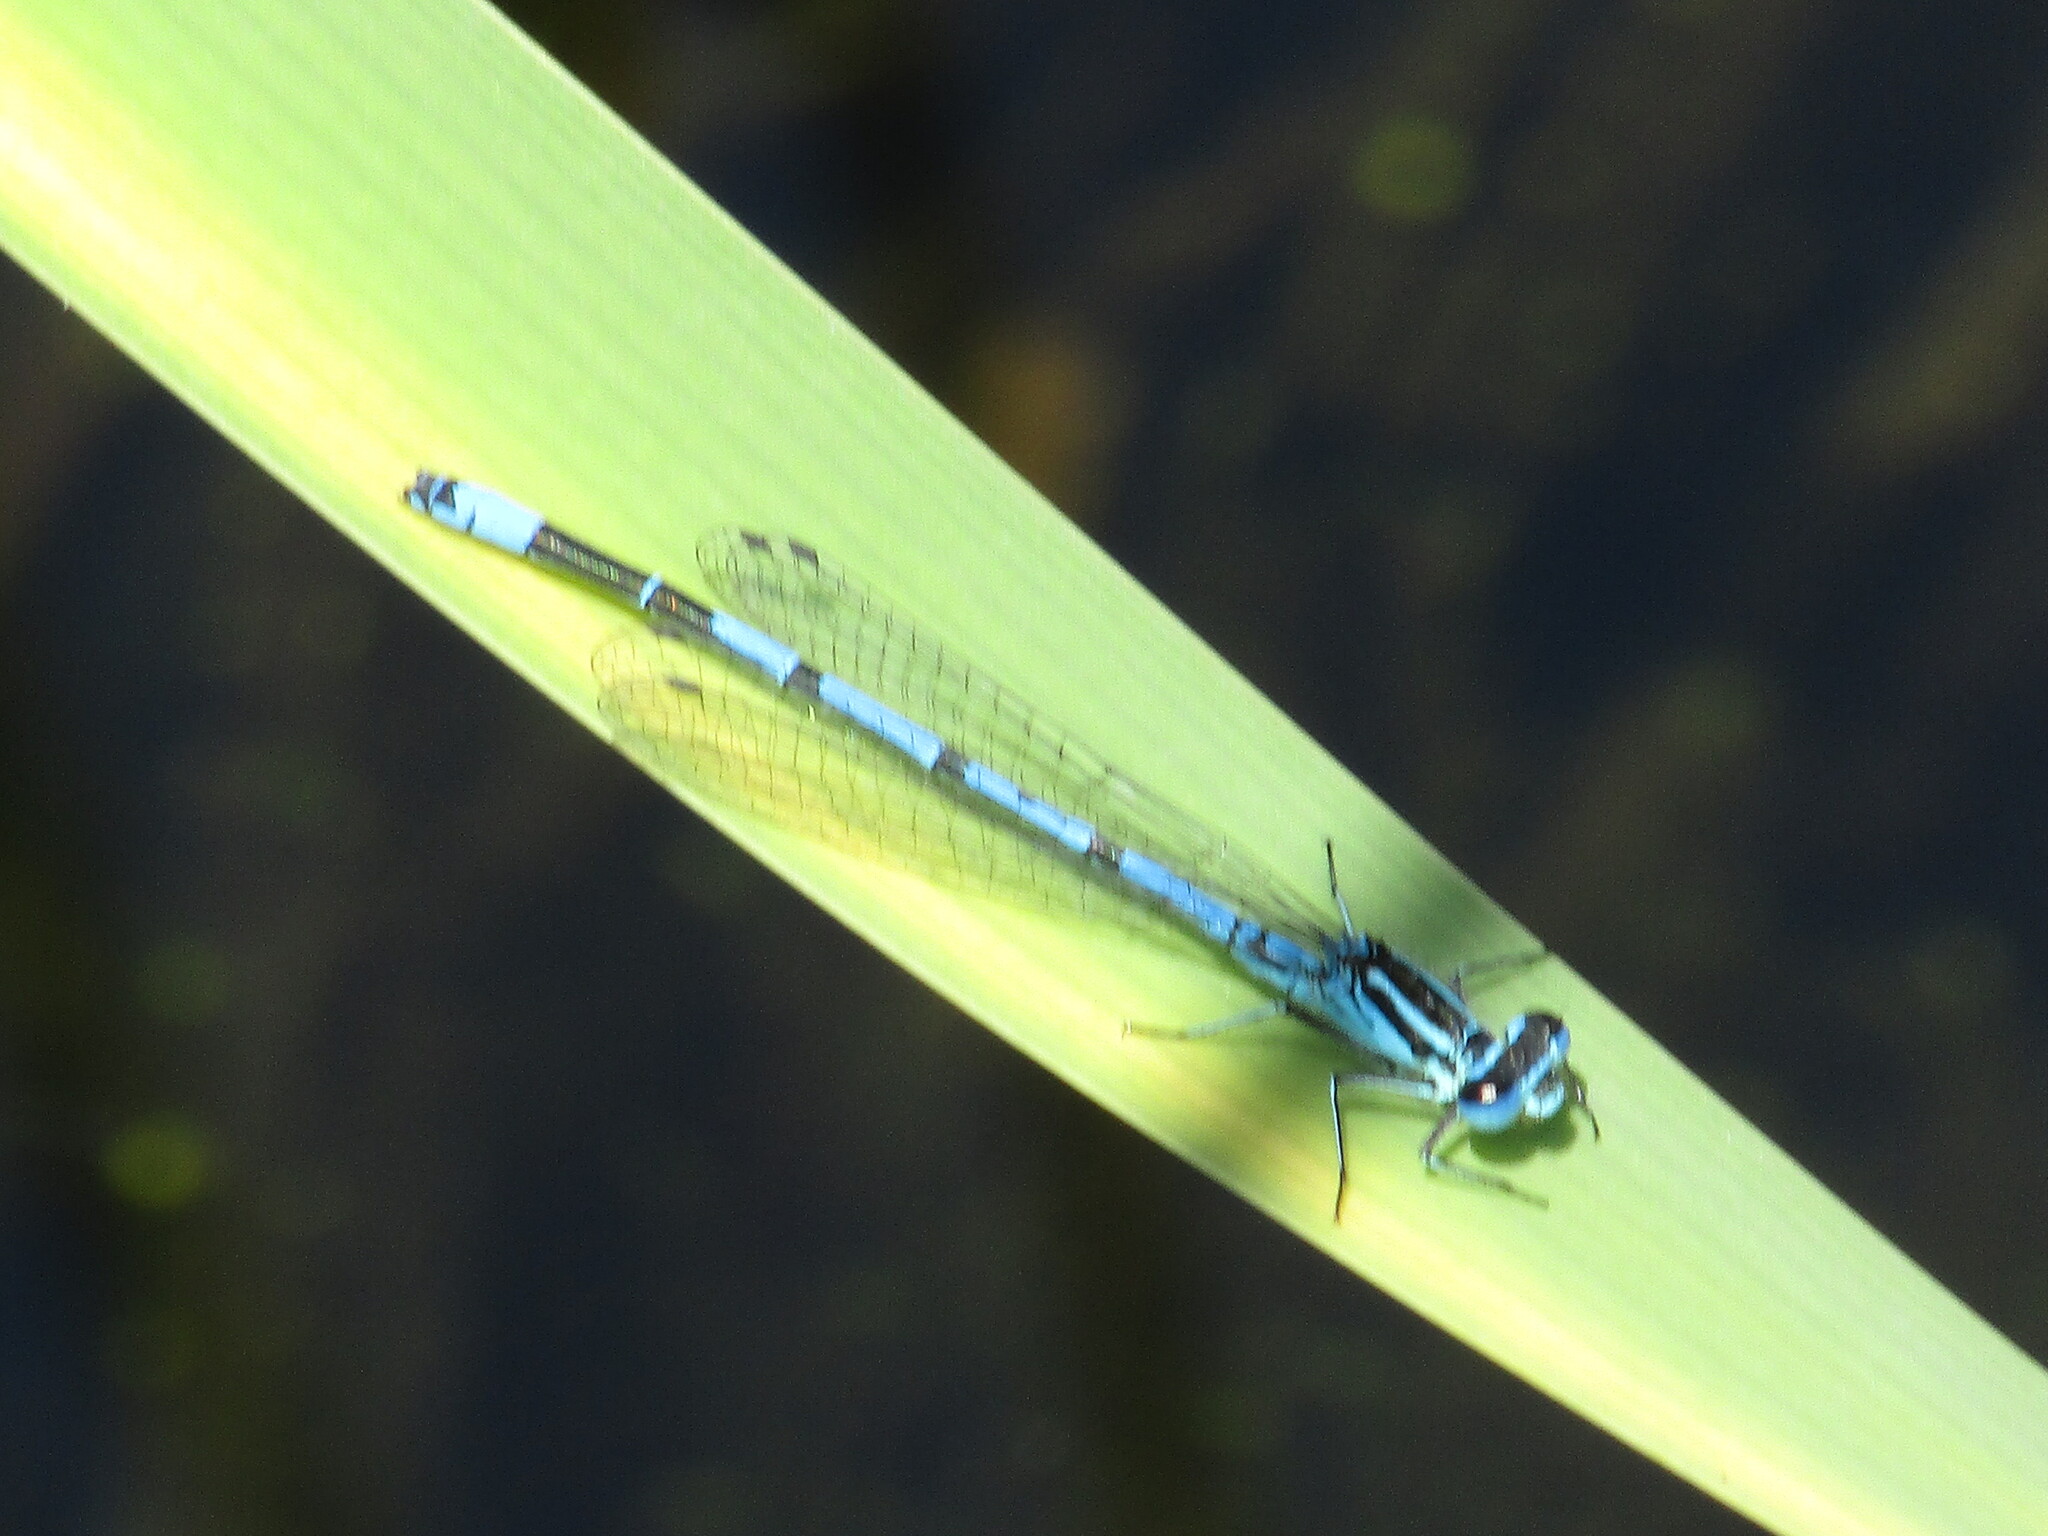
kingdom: Animalia
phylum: Arthropoda
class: Insecta
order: Odonata
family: Coenagrionidae
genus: Coenagrion
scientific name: Coenagrion puella
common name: Azure damselfly
